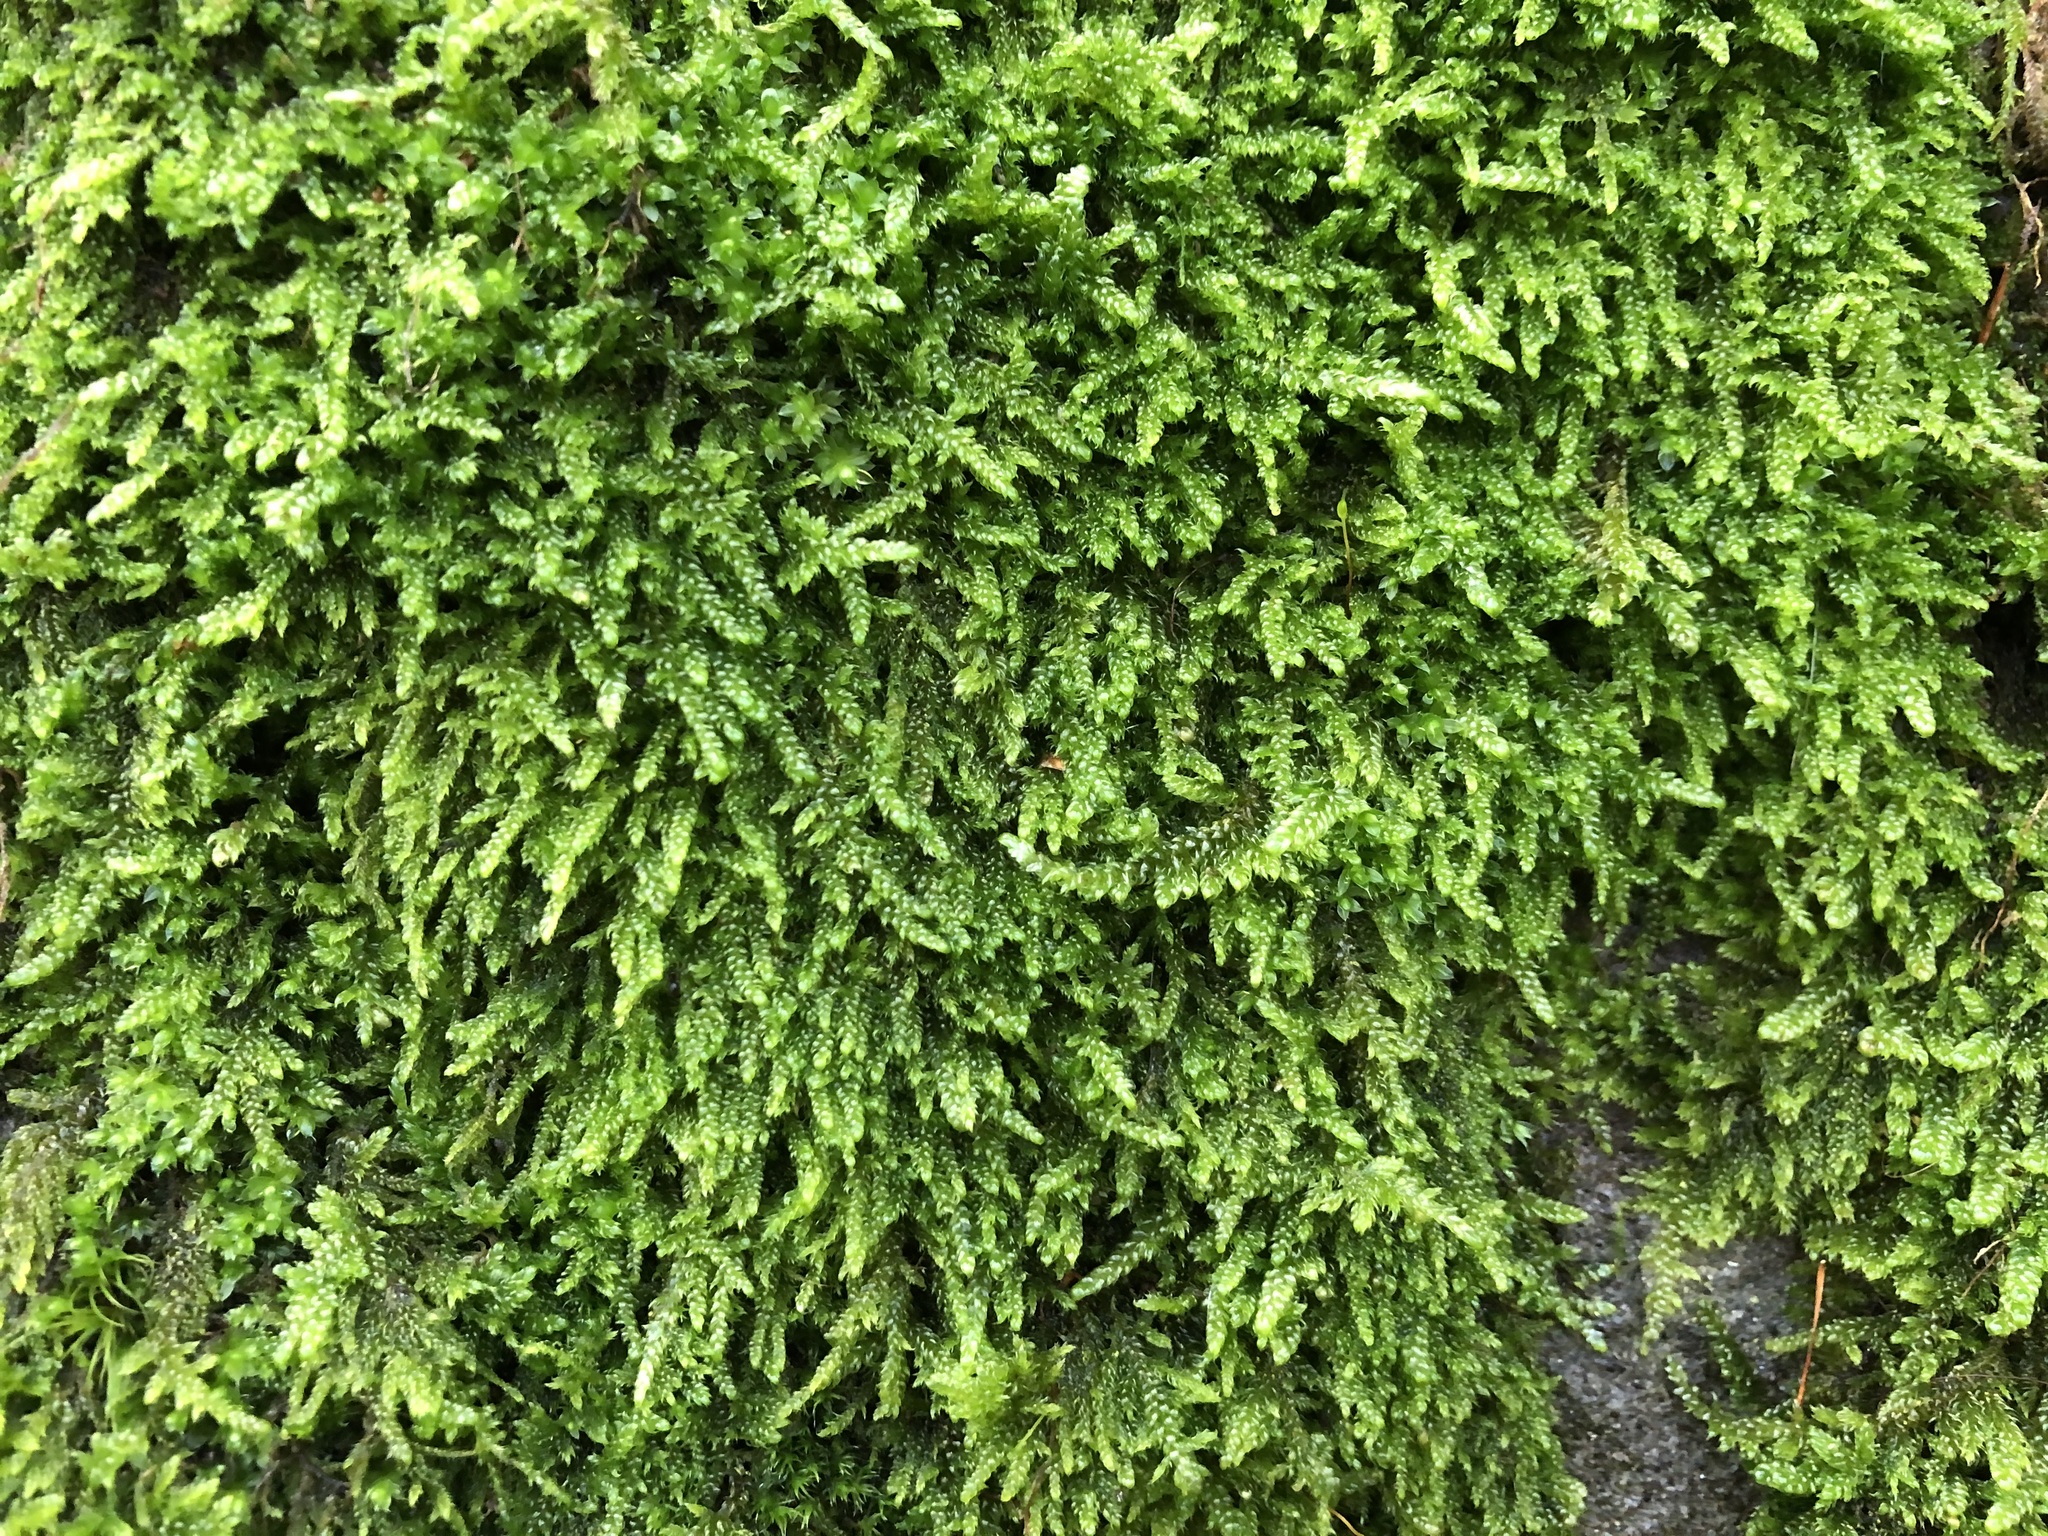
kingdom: Plantae
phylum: Bryophyta
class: Bryopsida
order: Hypnales
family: Hypnaceae
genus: Hypnum
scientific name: Hypnum cupressiforme
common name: Cypress-leaved plait-moss
